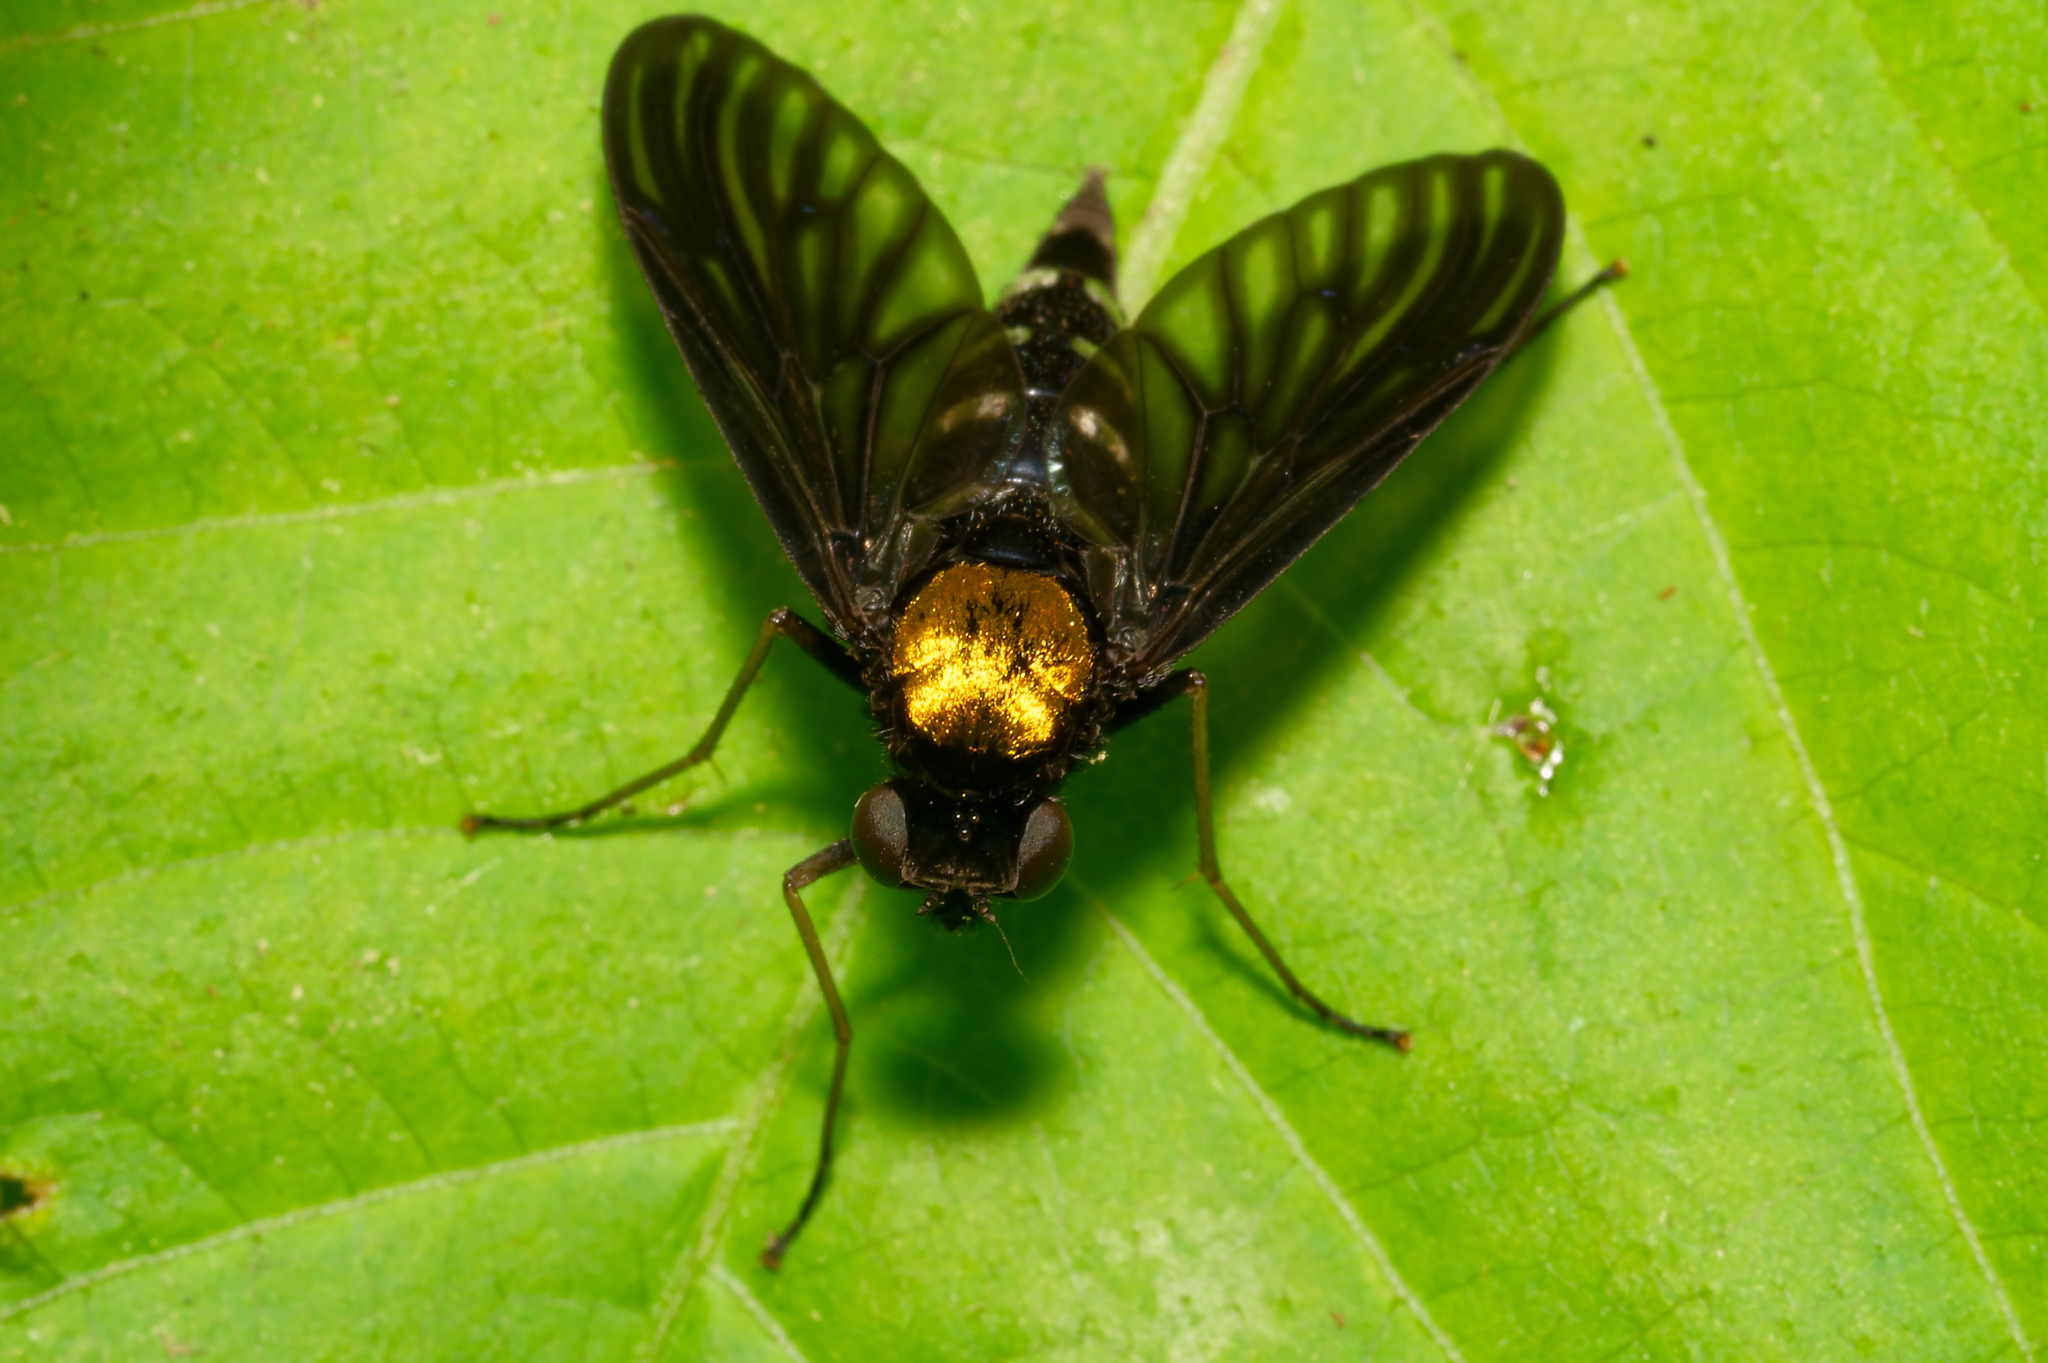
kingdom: Animalia
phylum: Arthropoda
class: Insecta
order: Diptera
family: Rhagionidae
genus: Chrysopilus
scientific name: Chrysopilus thoracicus
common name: Golden-backed snipe fly
